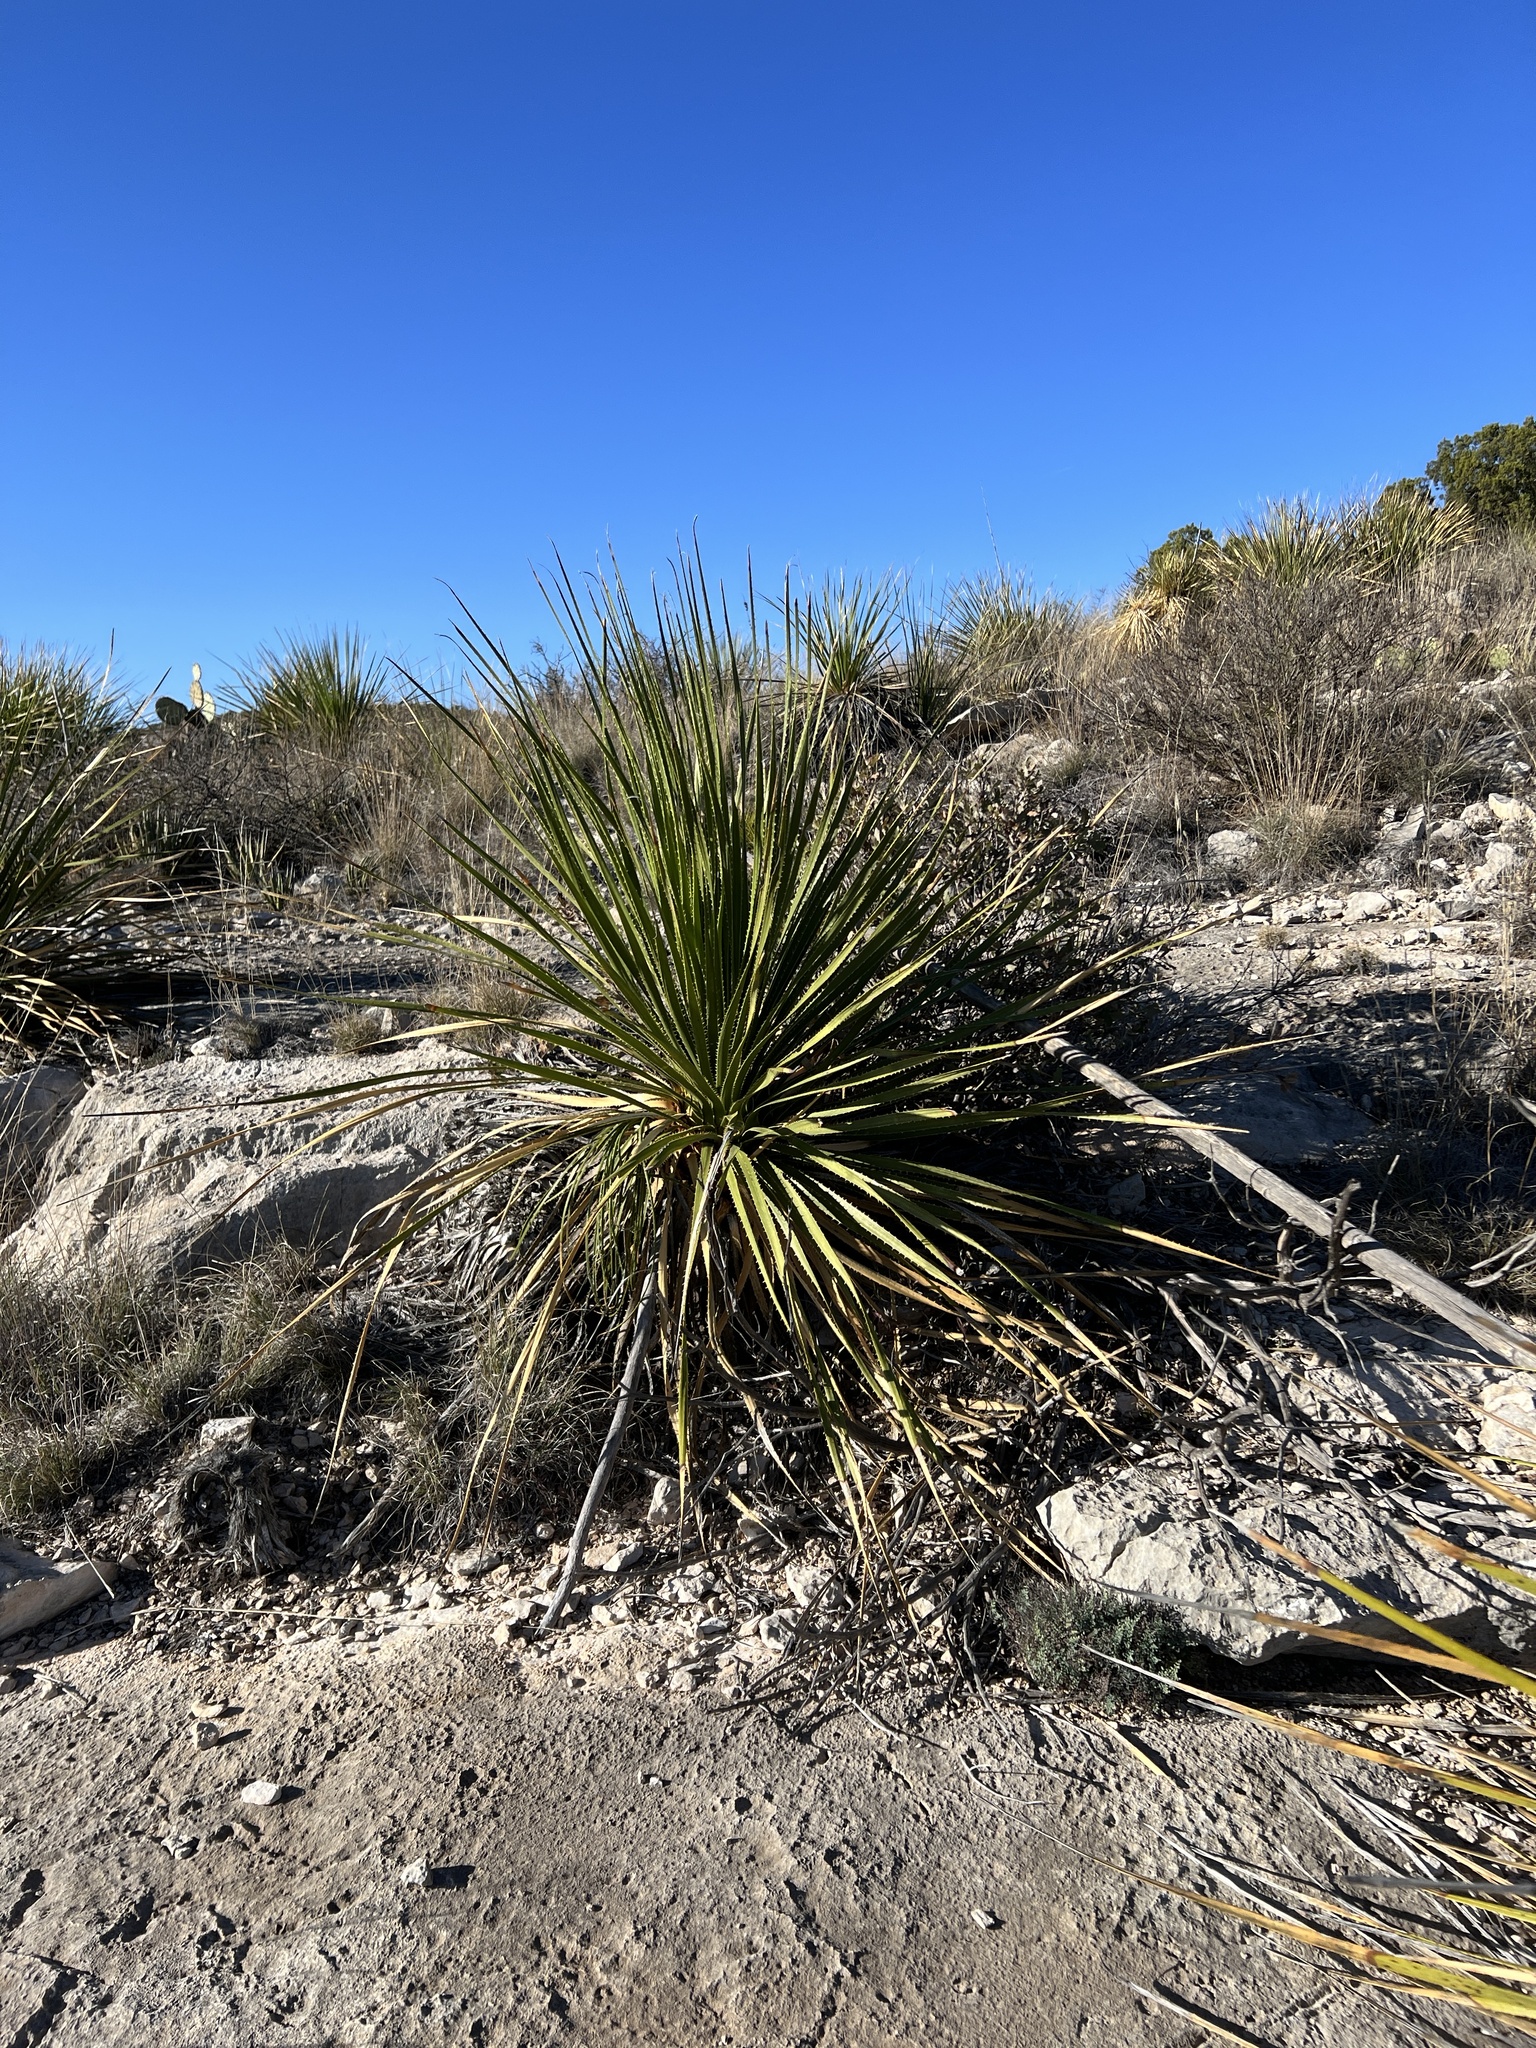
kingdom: Plantae
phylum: Tracheophyta
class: Liliopsida
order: Asparagales
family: Asparagaceae
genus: Dasylirion
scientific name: Dasylirion texanum
